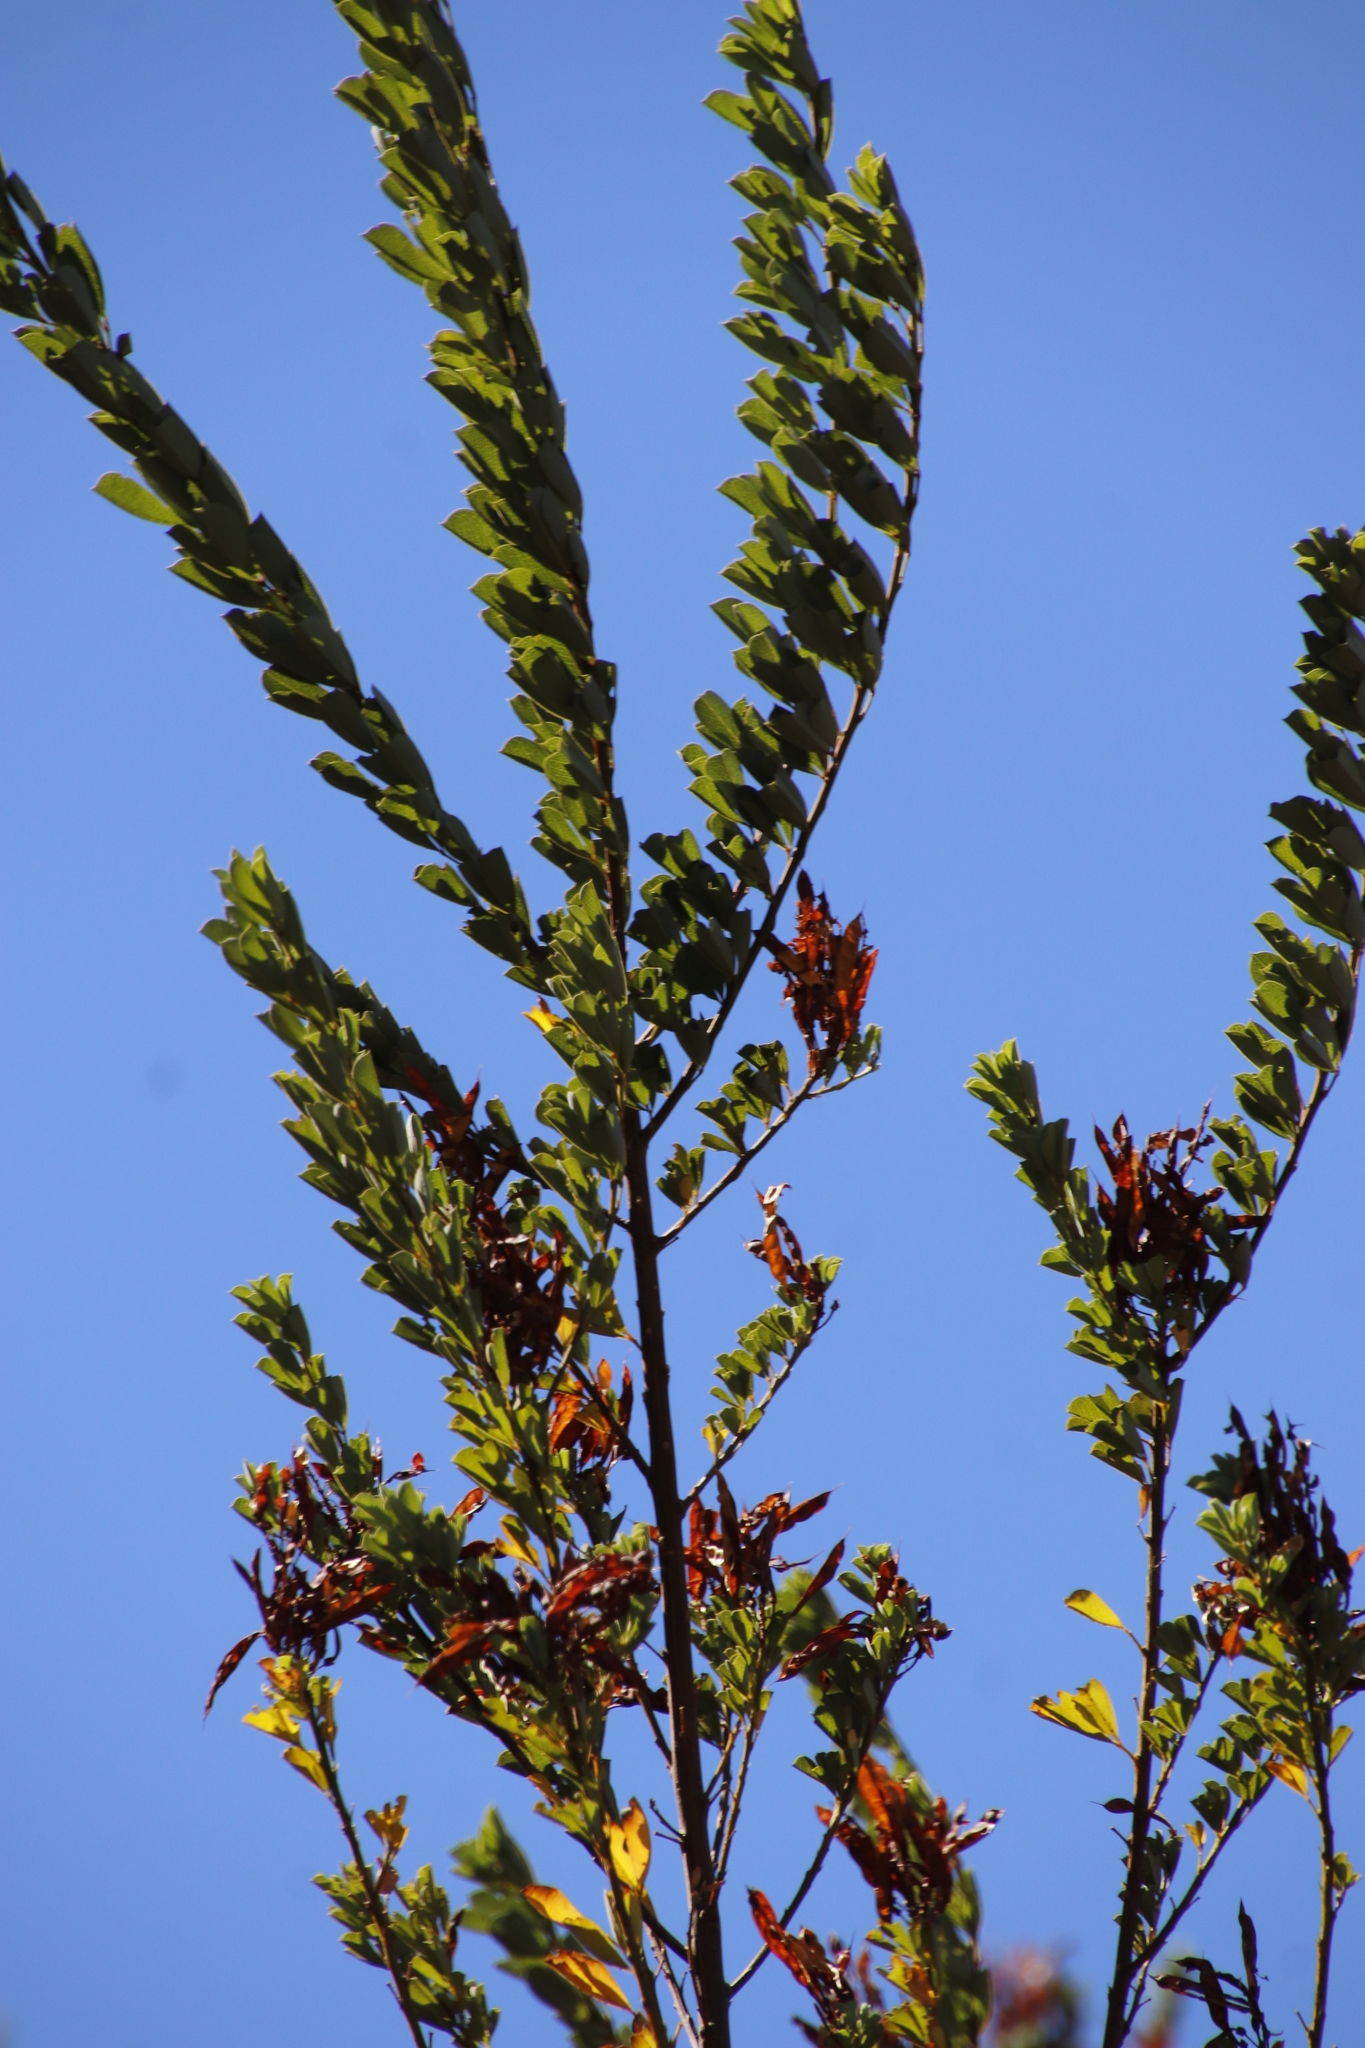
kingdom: Plantae
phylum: Tracheophyta
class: Magnoliopsida
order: Fabales
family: Fabaceae
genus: Hypocalyptus
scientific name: Hypocalyptus sophoroides
